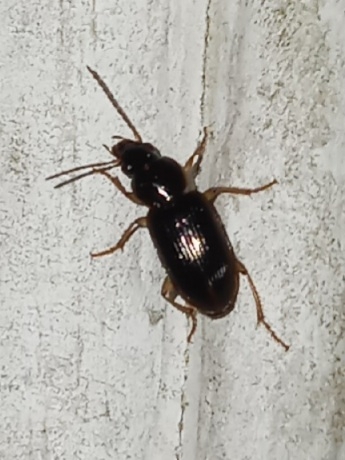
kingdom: Animalia
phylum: Arthropoda
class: Insecta
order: Coleoptera
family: Carabidae
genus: Stenolophus
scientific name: Stenolophus ochropezus
